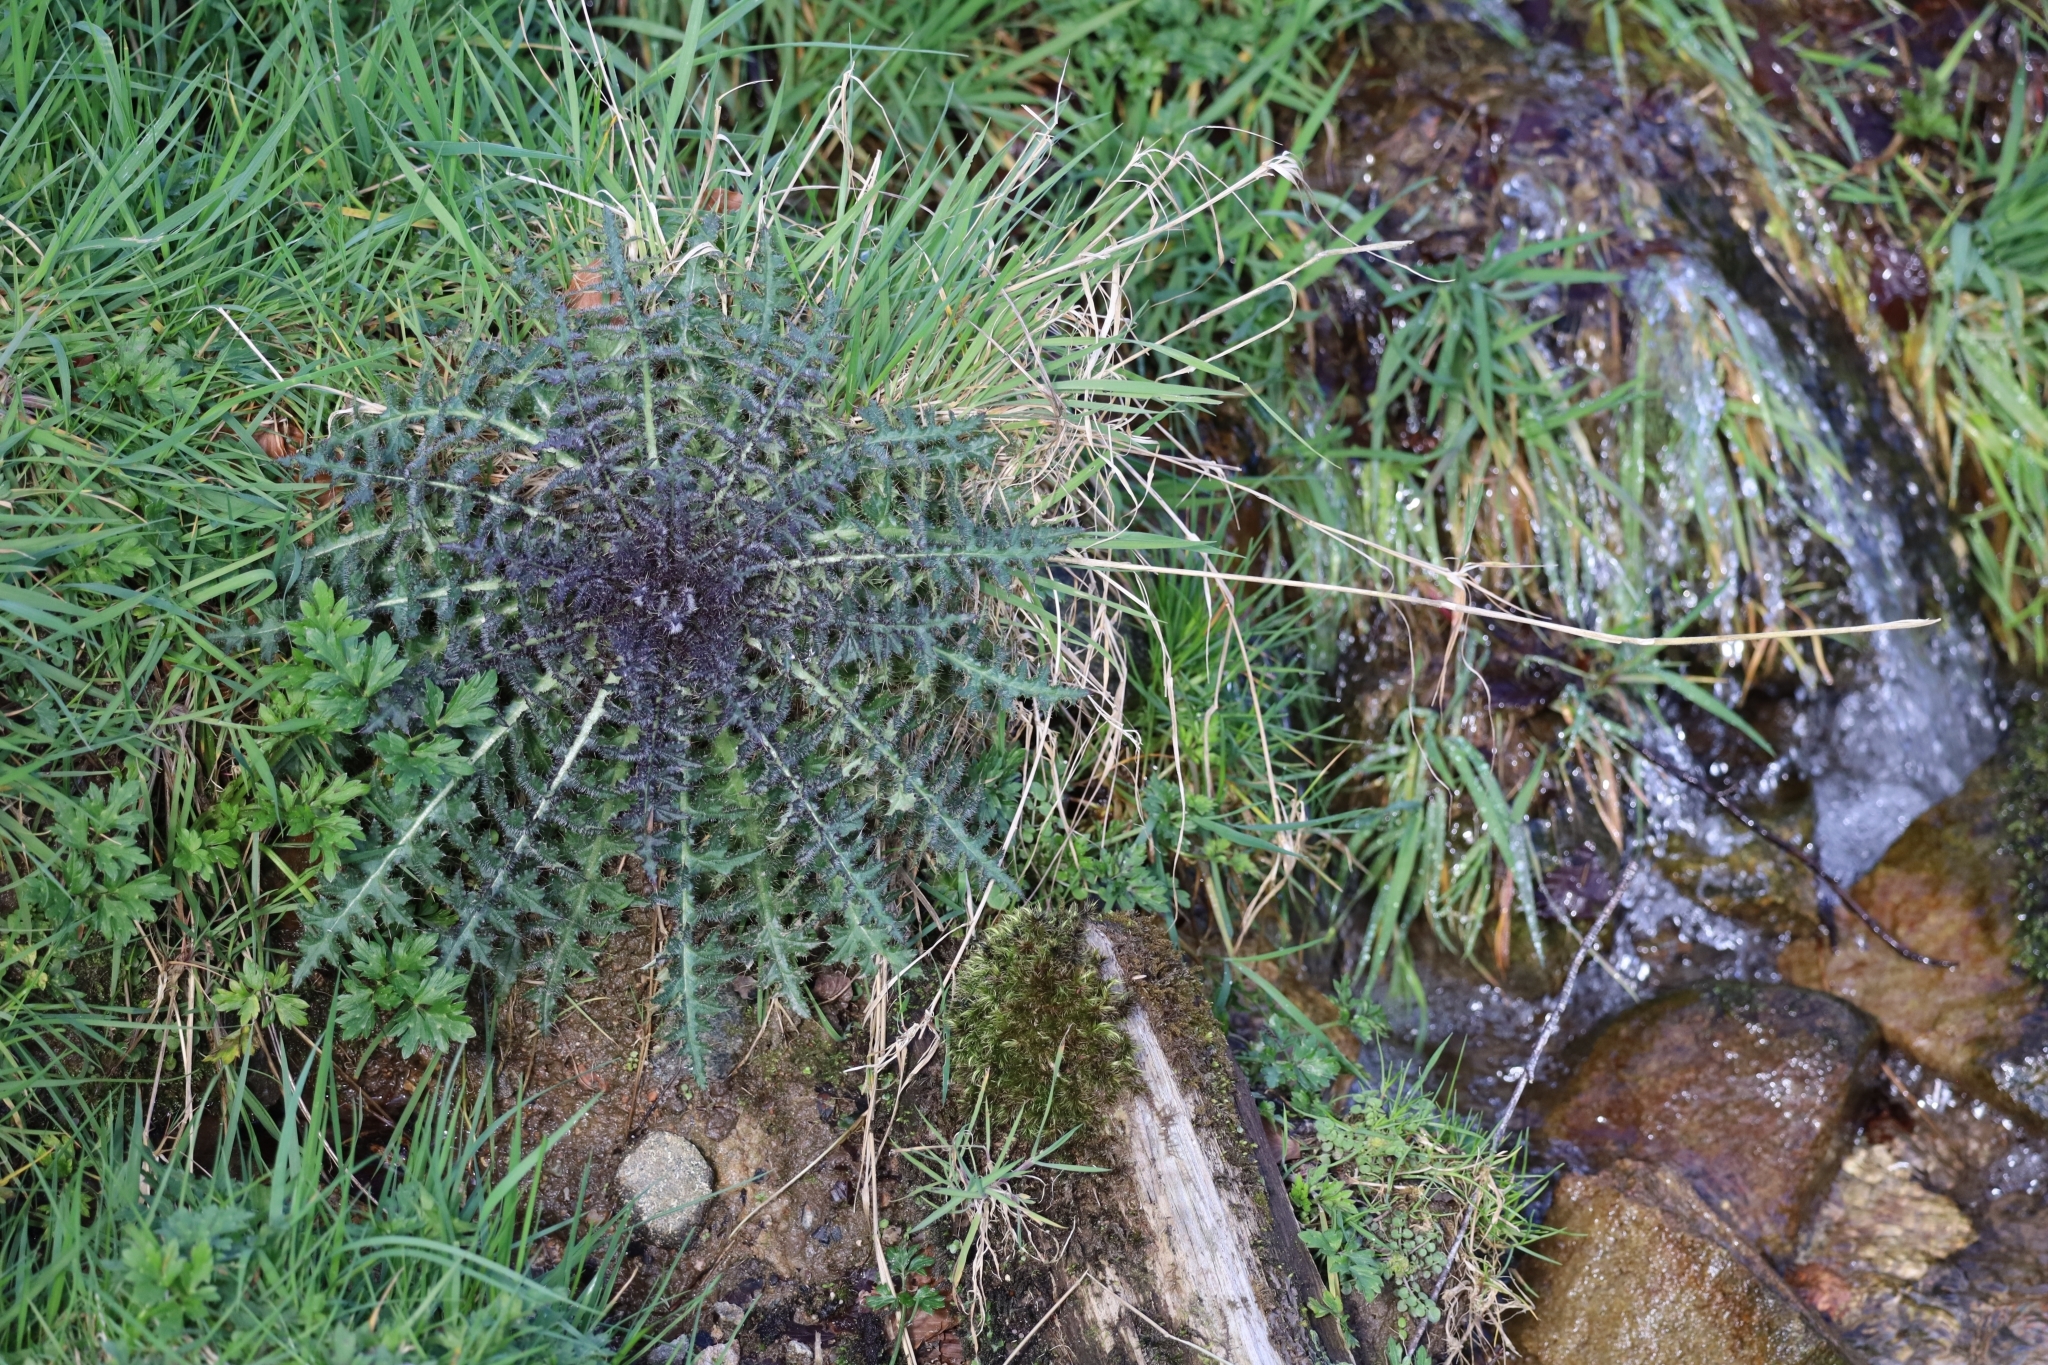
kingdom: Plantae
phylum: Tracheophyta
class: Magnoliopsida
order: Asterales
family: Asteraceae
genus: Cirsium
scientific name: Cirsium palustre
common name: Marsh thistle
